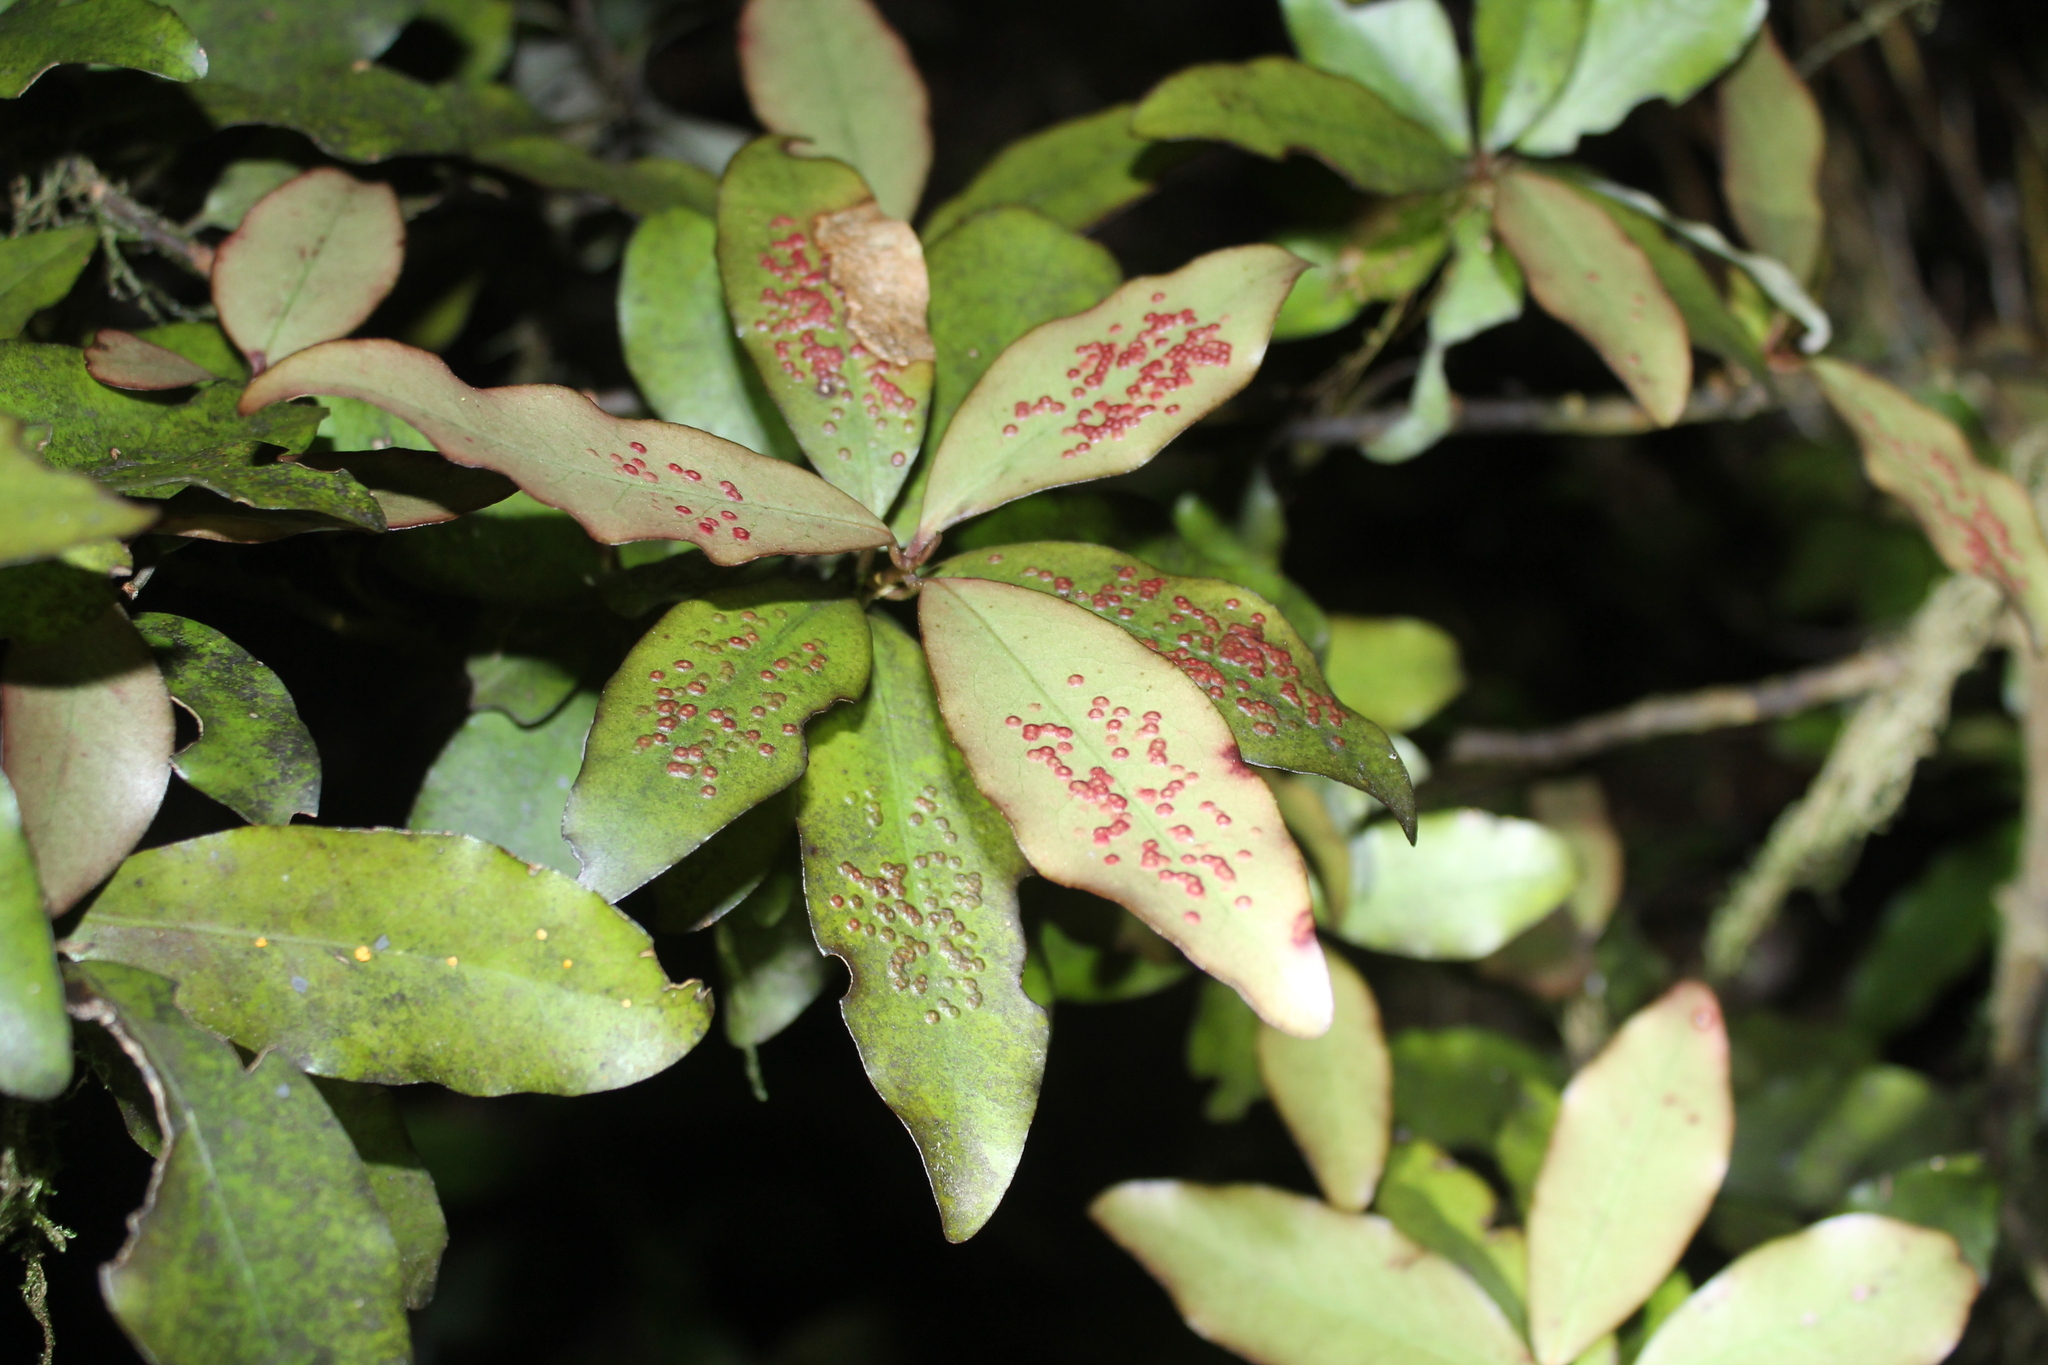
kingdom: Plantae
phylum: Tracheophyta
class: Magnoliopsida
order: Canellales
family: Winteraceae
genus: Pseudowintera
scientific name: Pseudowintera colorata
